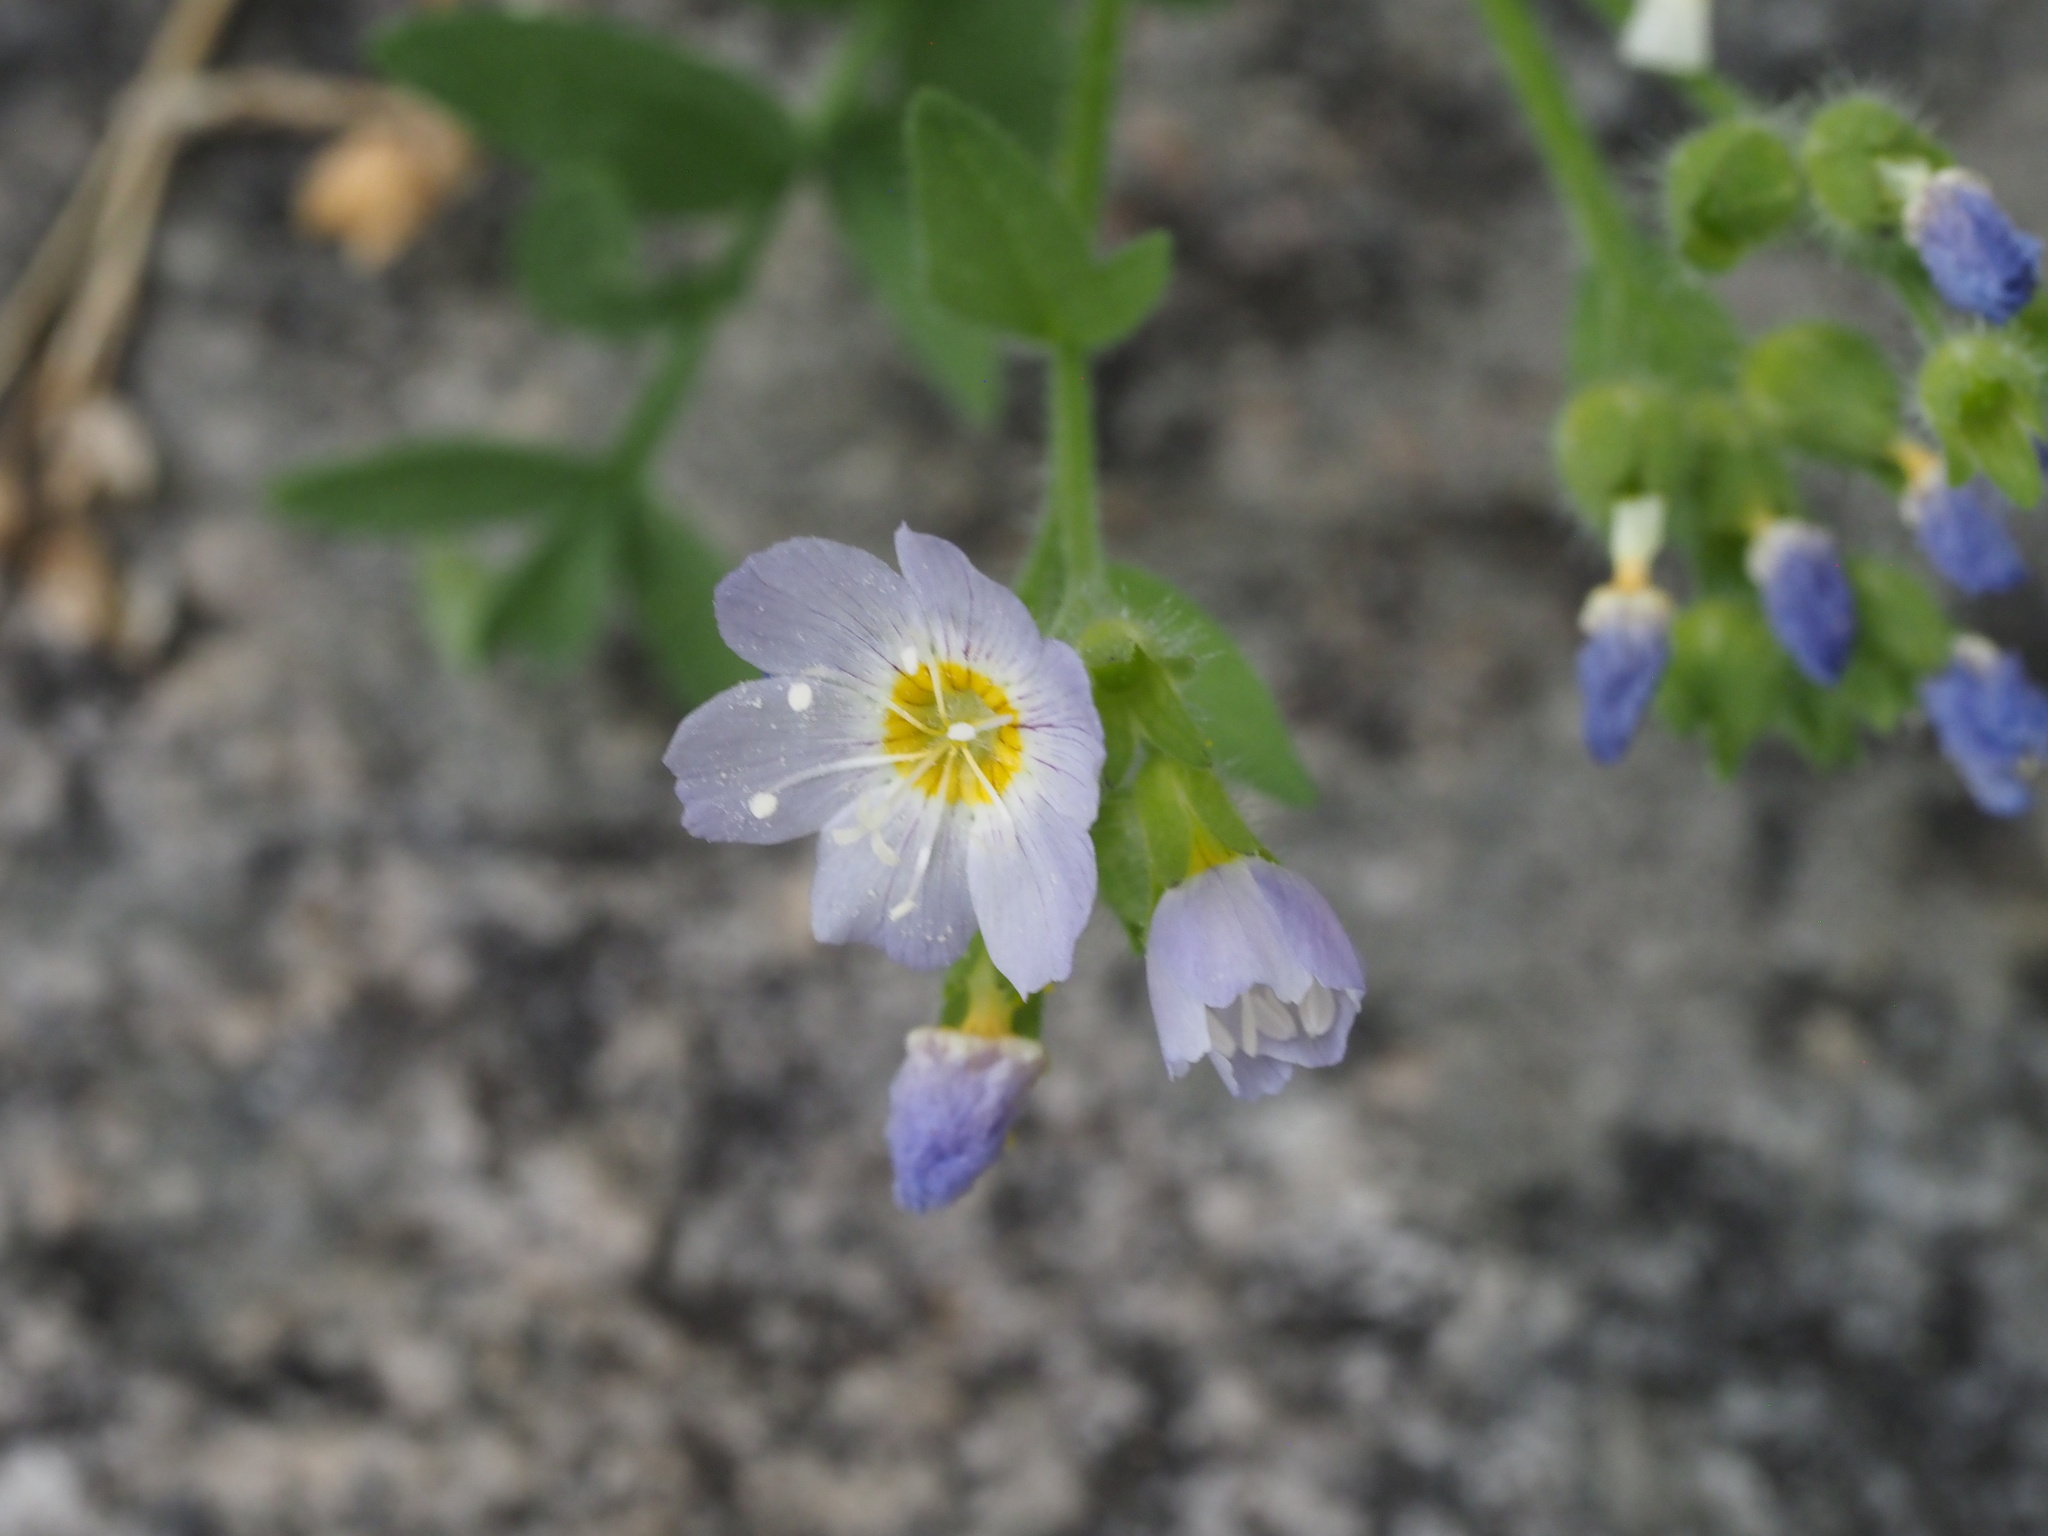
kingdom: Plantae
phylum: Tracheophyta
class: Magnoliopsida
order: Ericales
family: Polemoniaceae
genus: Polemonium
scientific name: Polemonium californicum
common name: California jacob's ladder
